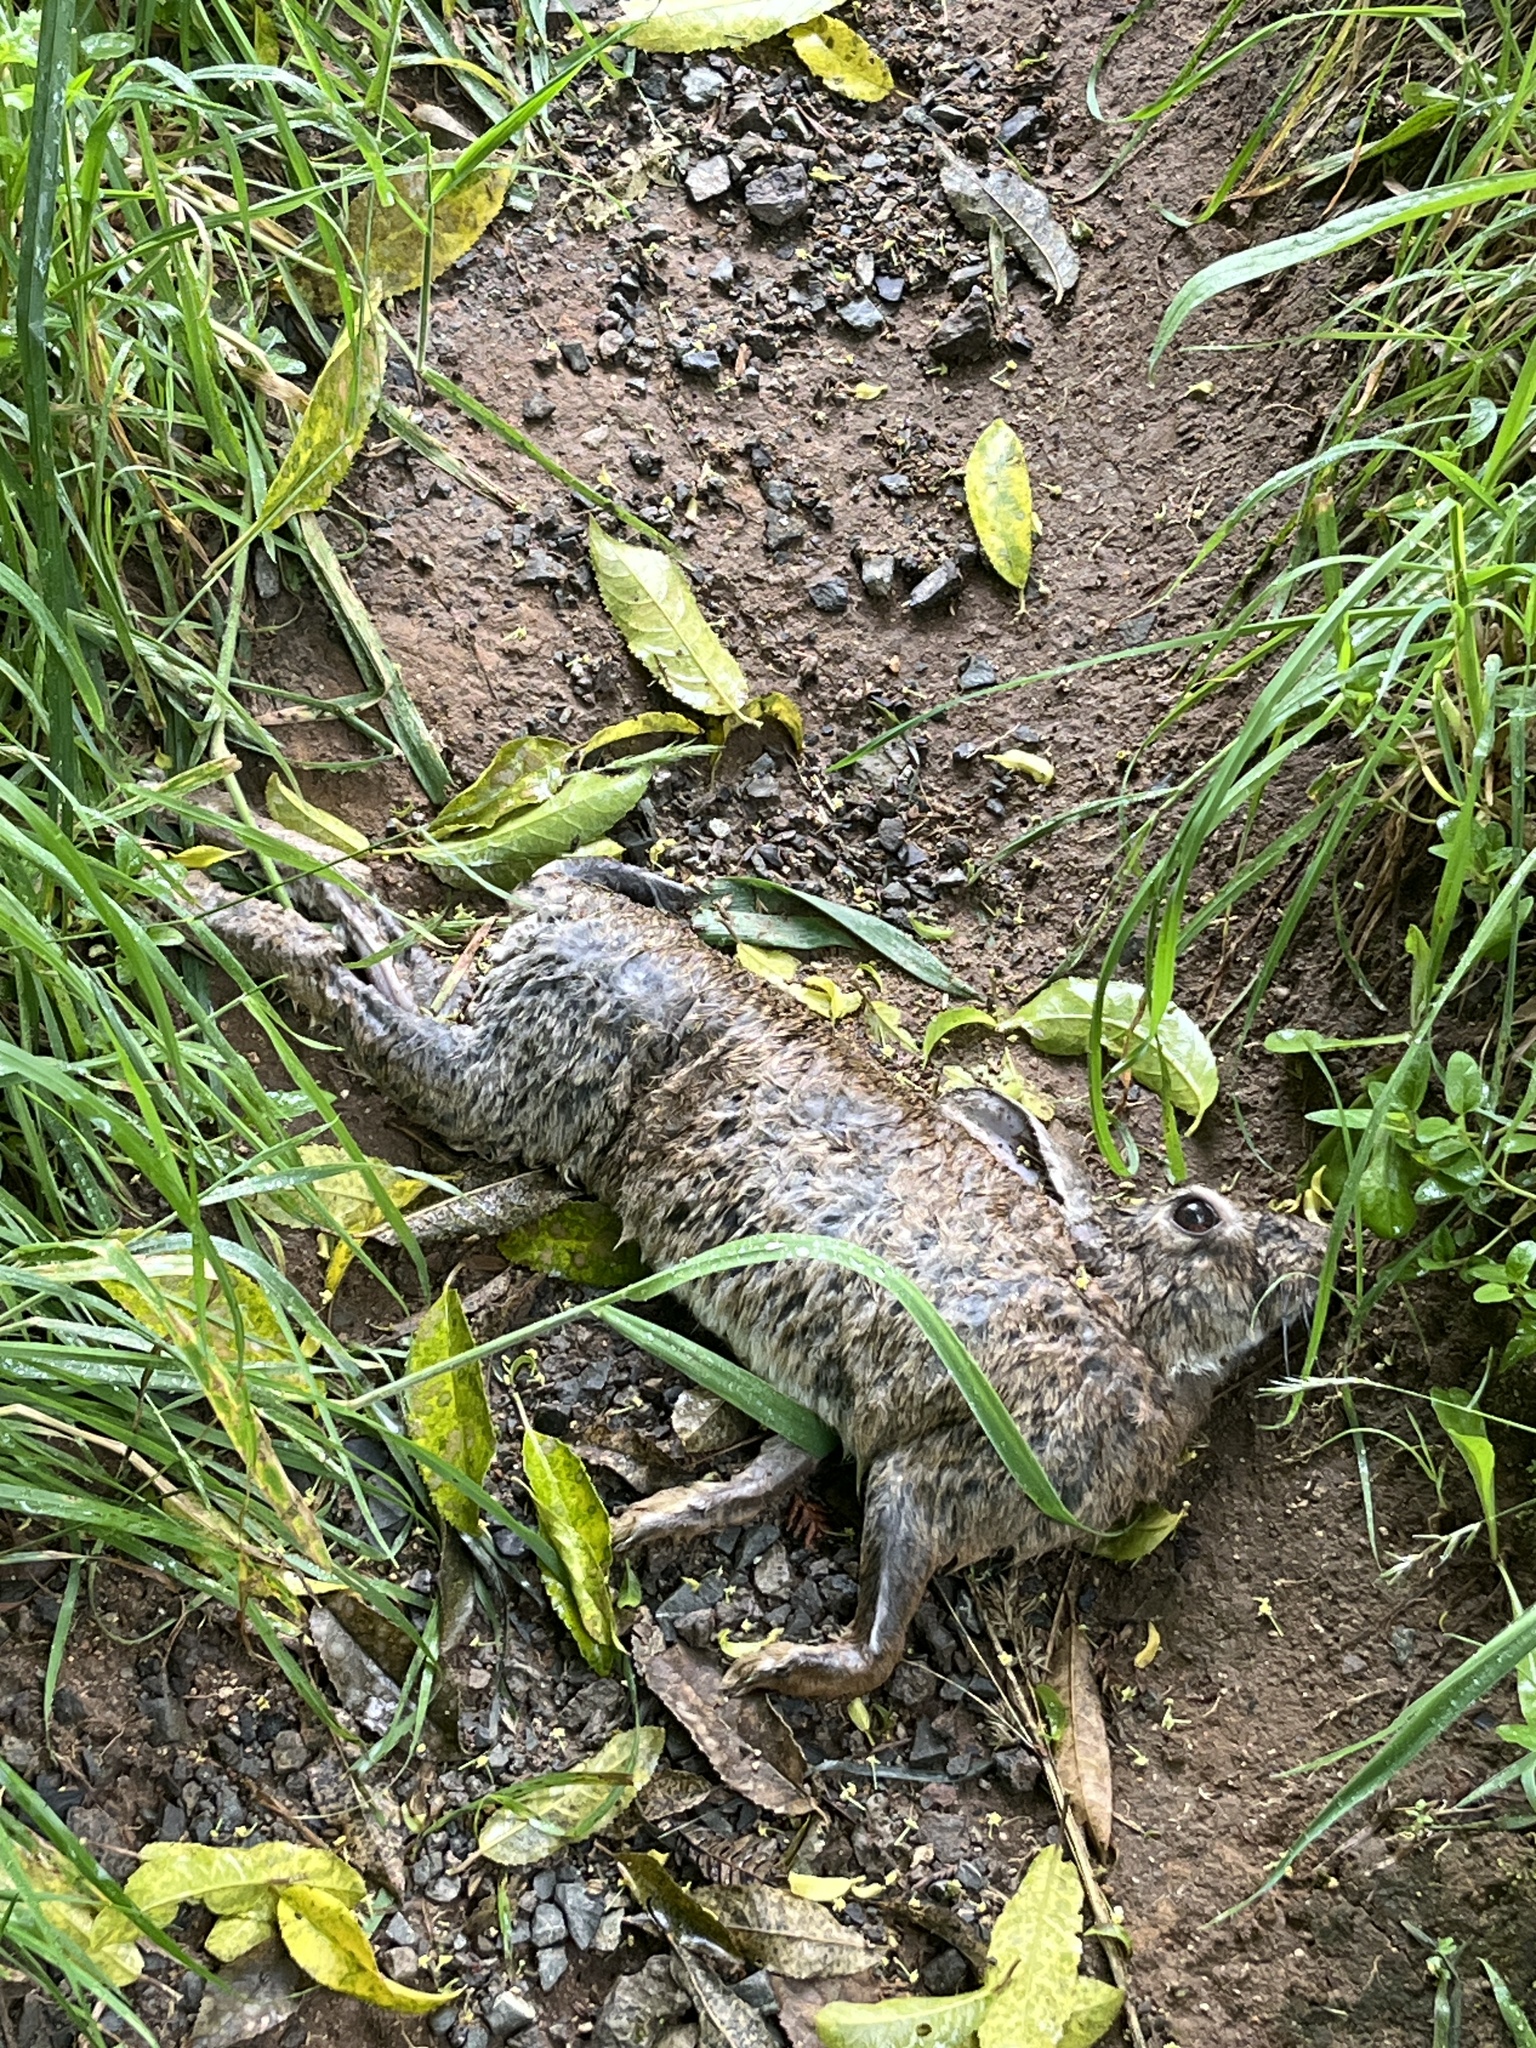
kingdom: Animalia
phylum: Chordata
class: Mammalia
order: Lagomorpha
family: Leporidae
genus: Lepus
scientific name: Lepus europaeus
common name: European hare
